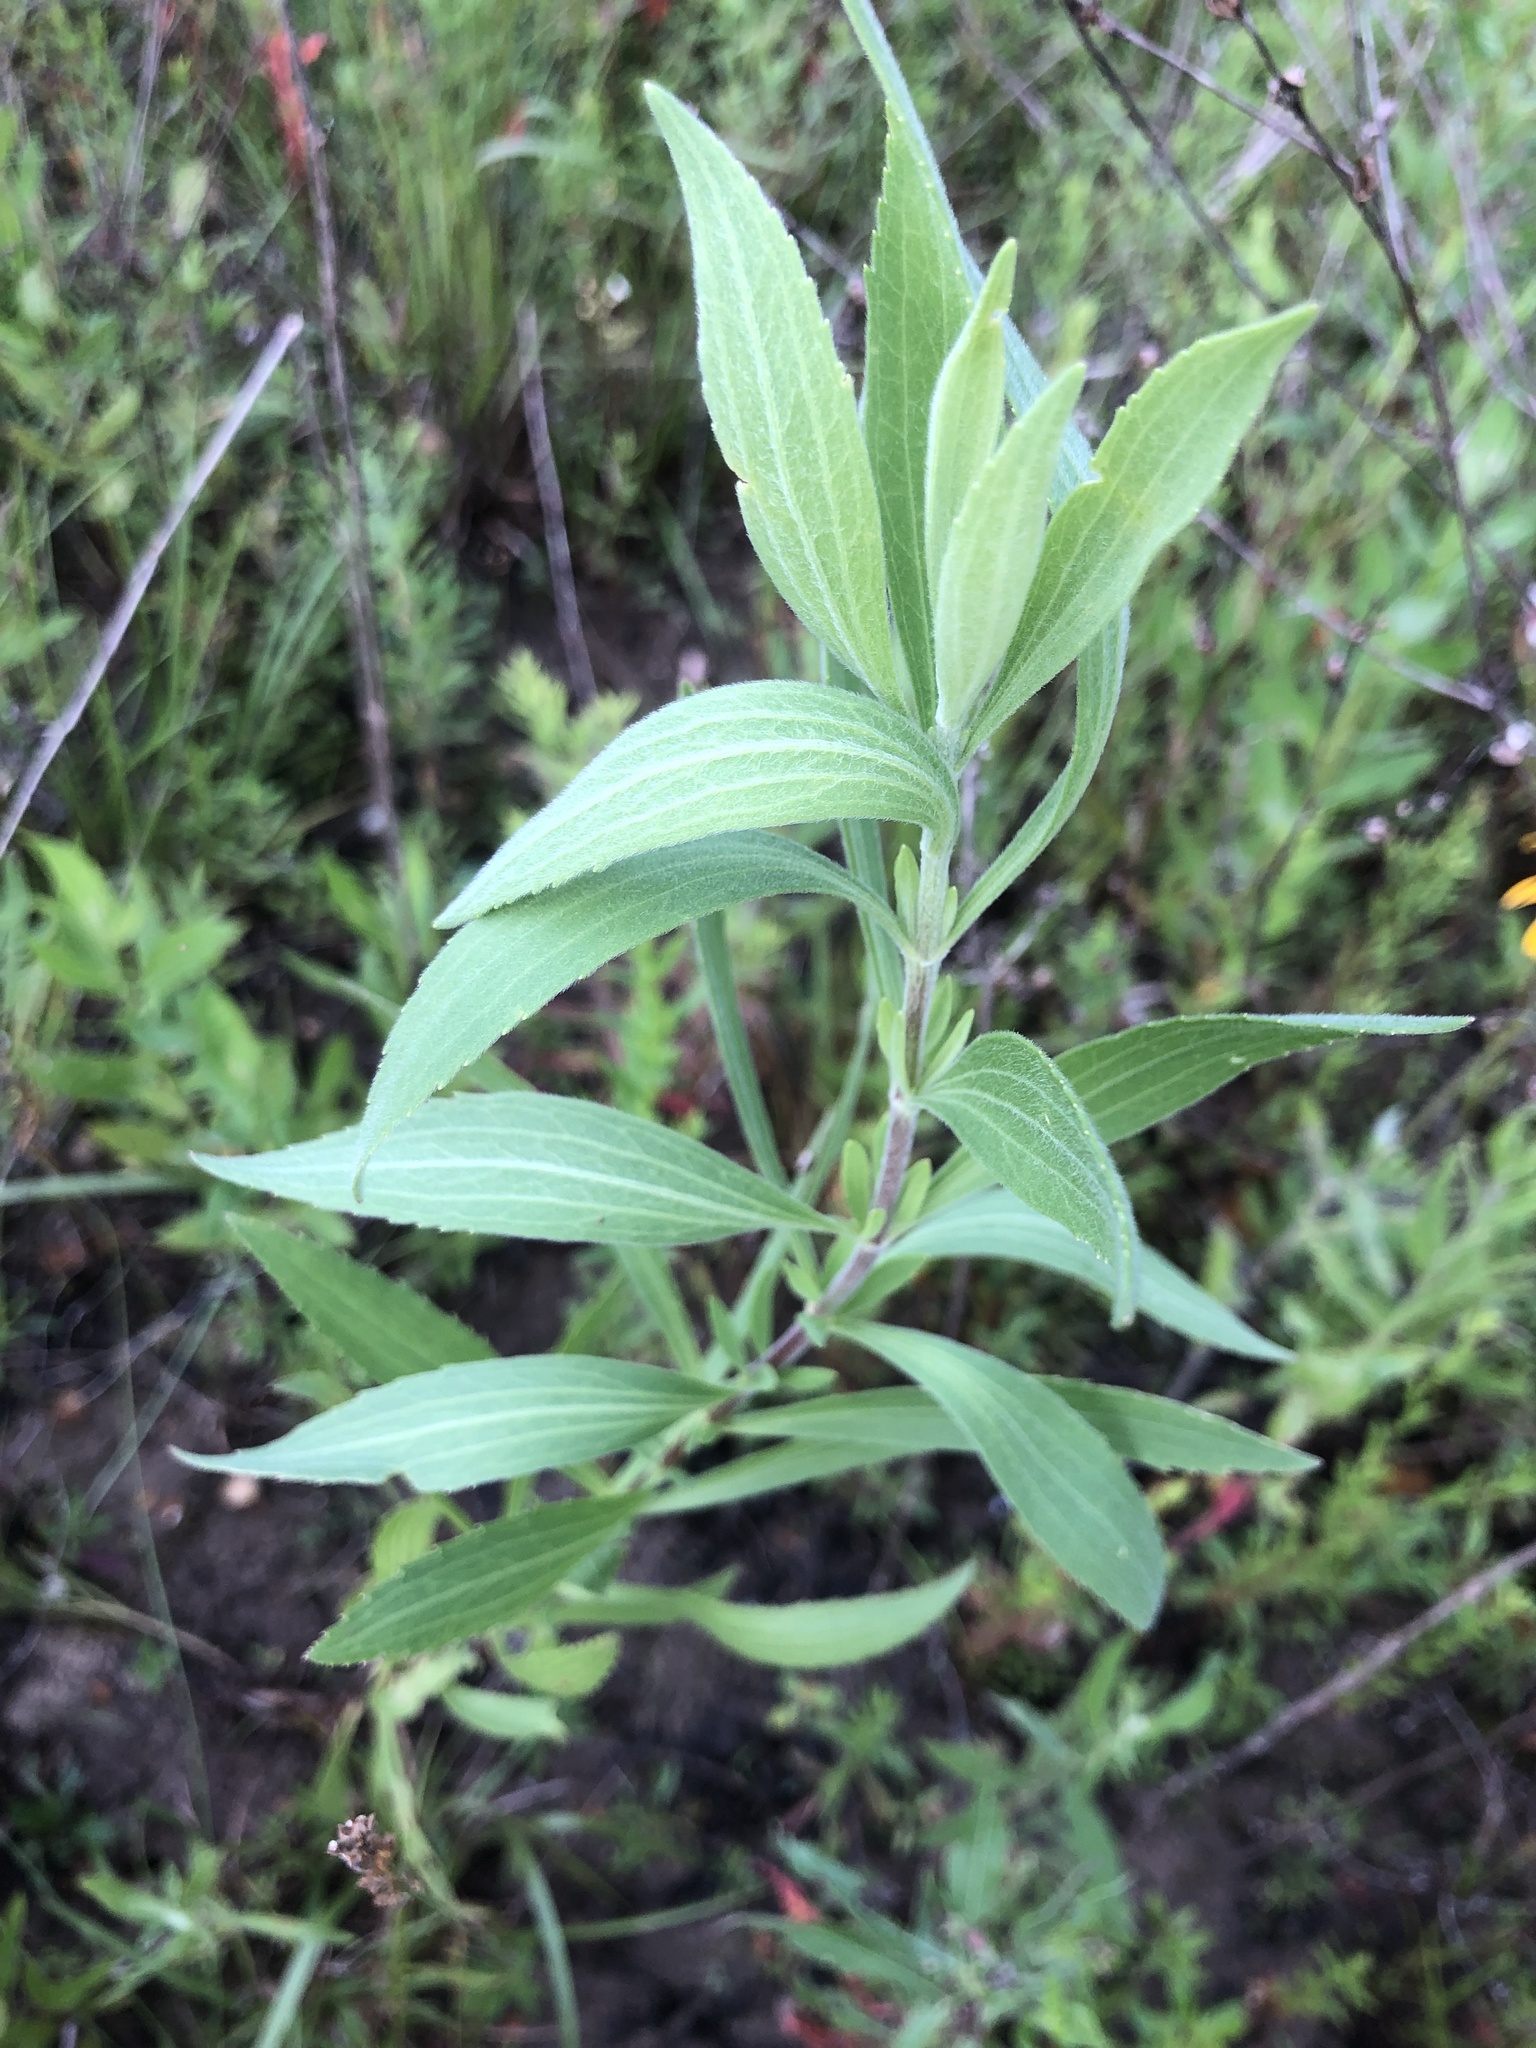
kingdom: Plantae
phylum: Tracheophyta
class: Magnoliopsida
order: Asterales
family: Asteraceae
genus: Eupatorium
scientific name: Eupatorium altissimum
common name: Tall thoroughwort
